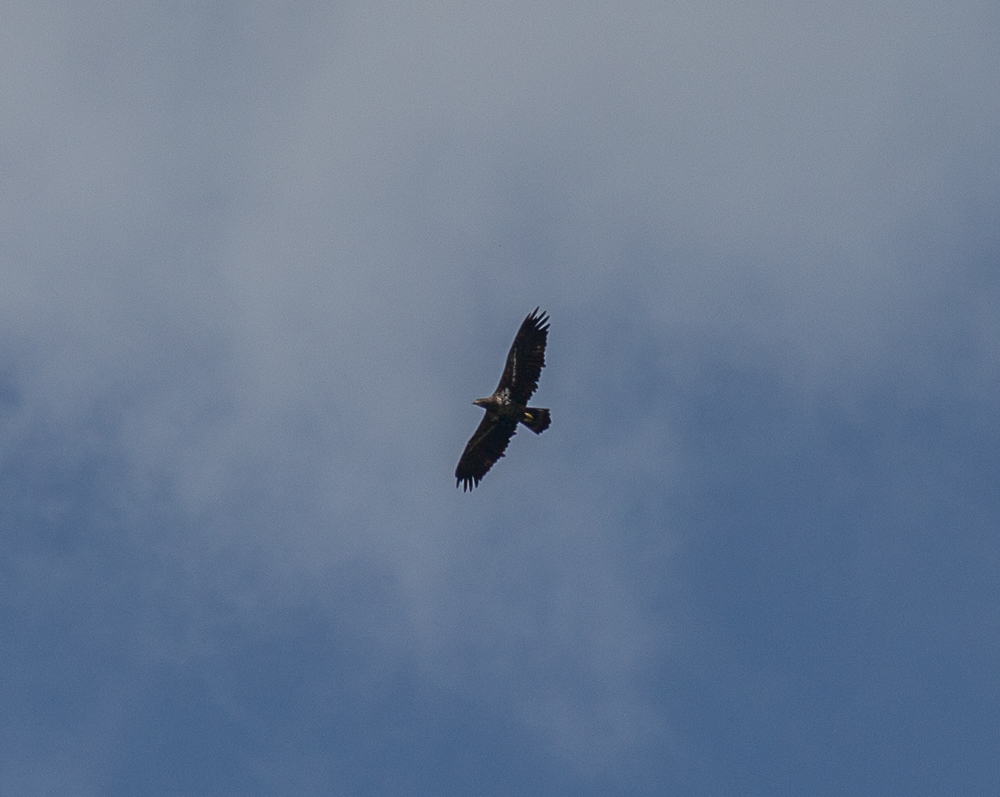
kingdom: Animalia
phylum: Chordata
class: Aves
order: Accipitriformes
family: Accipitridae
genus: Haliaeetus
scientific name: Haliaeetus leucocephalus
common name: Bald eagle
